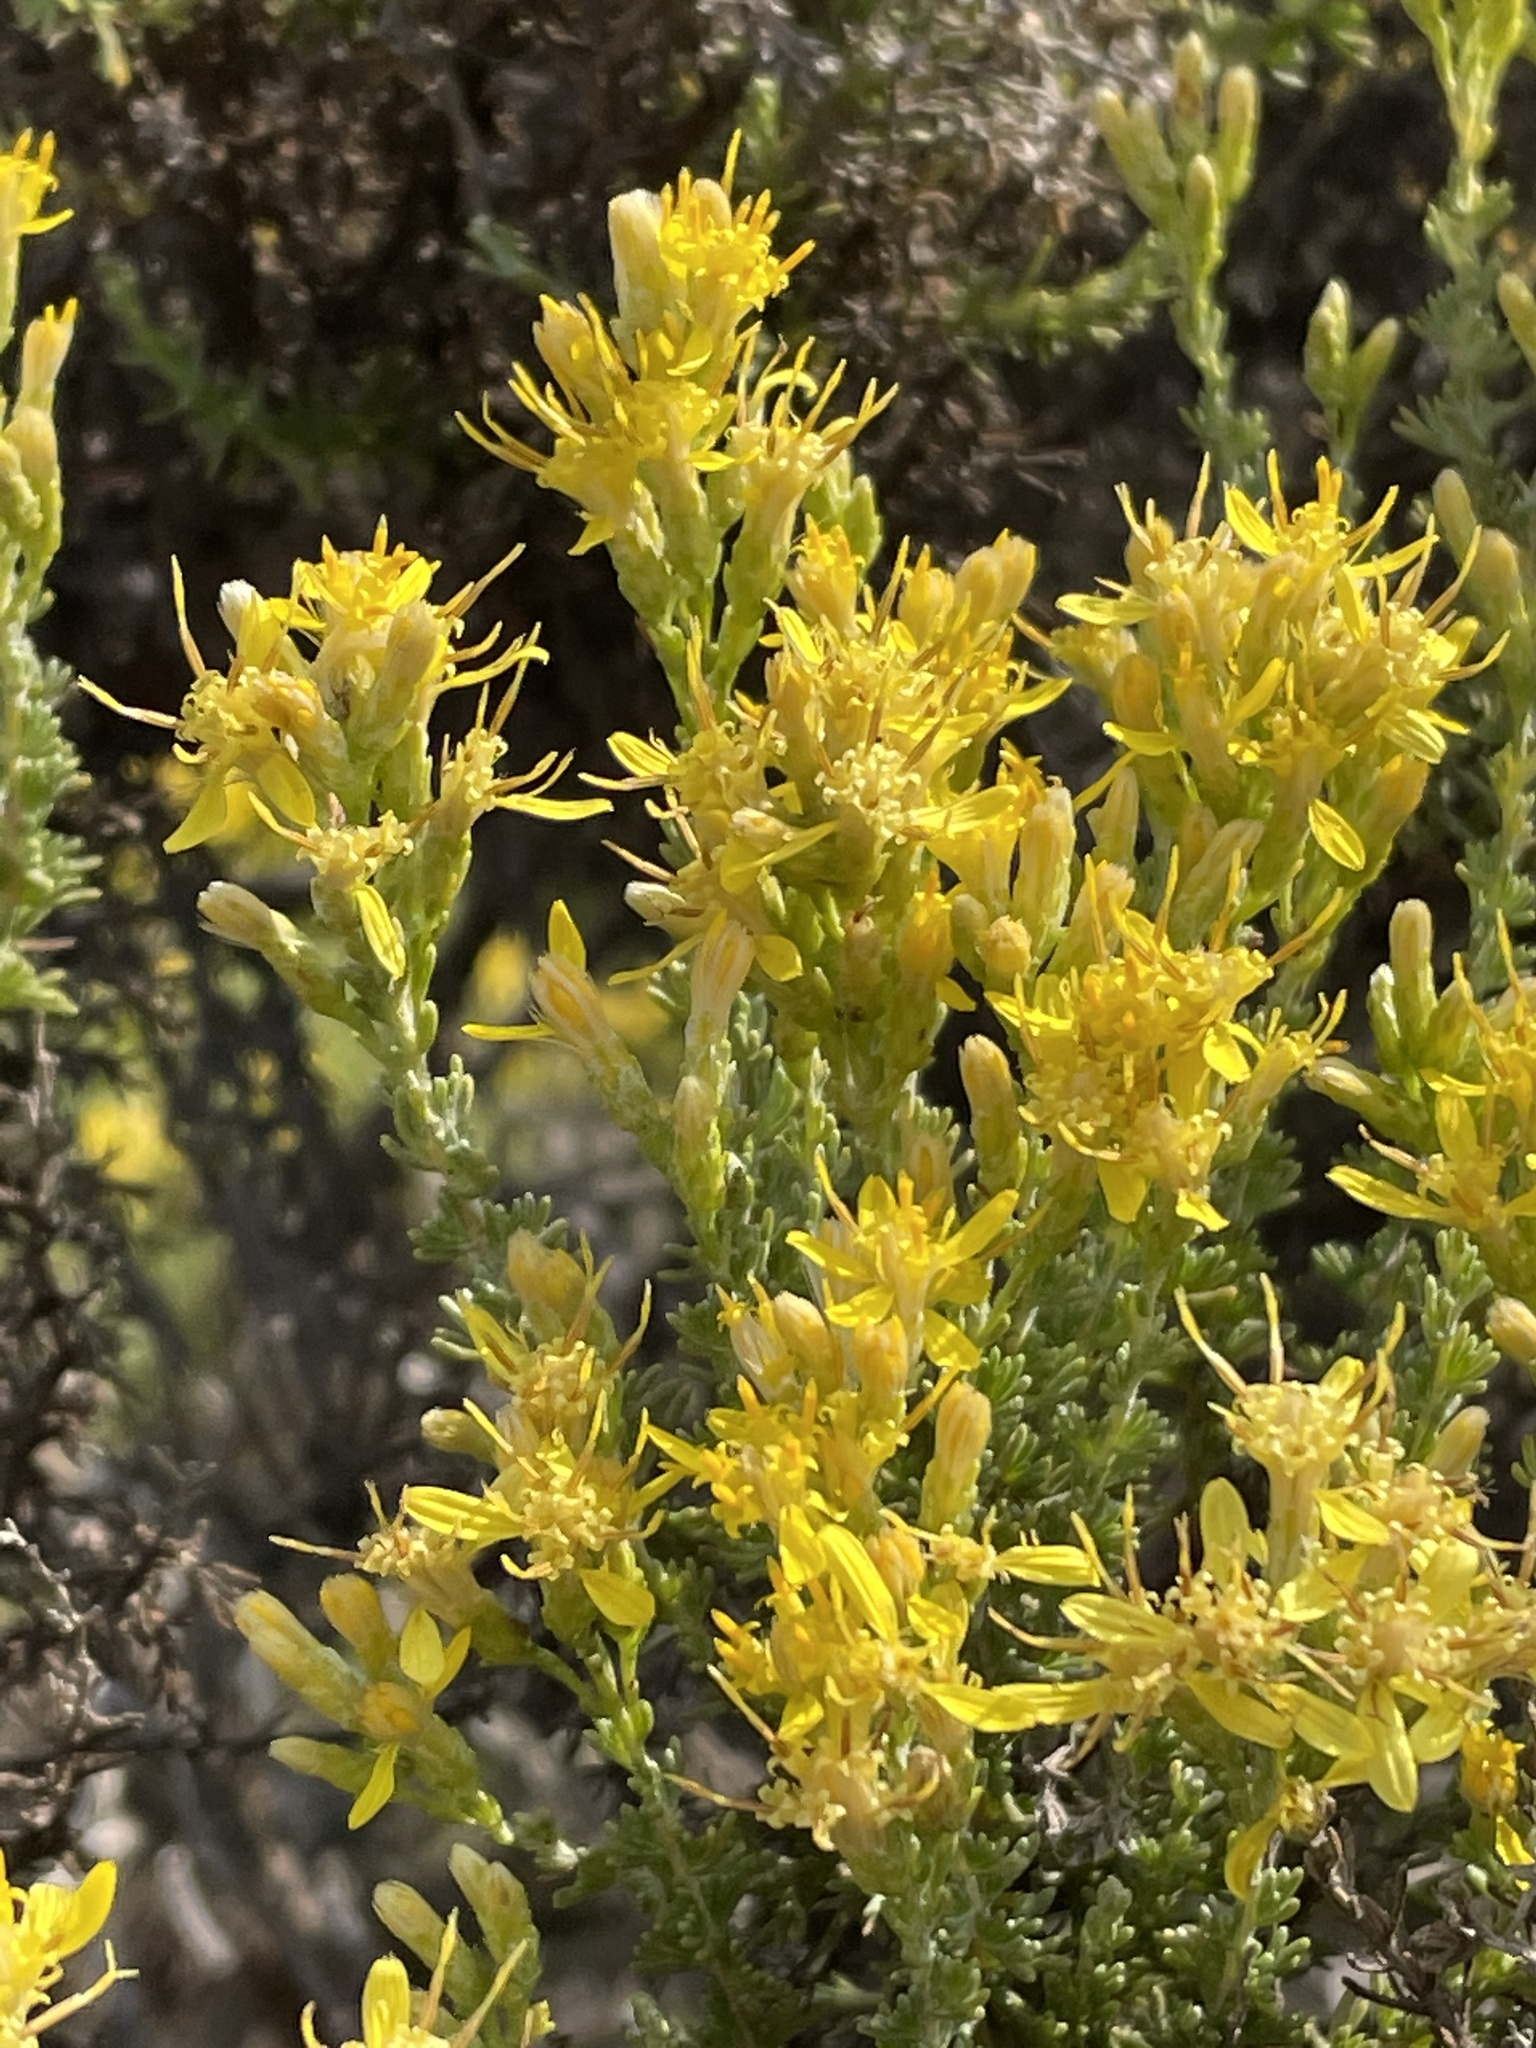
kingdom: Plantae
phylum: Tracheophyta
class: Magnoliopsida
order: Asterales
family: Asteraceae
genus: Ericameria
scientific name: Ericameria ericoides
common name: California goldenbush
